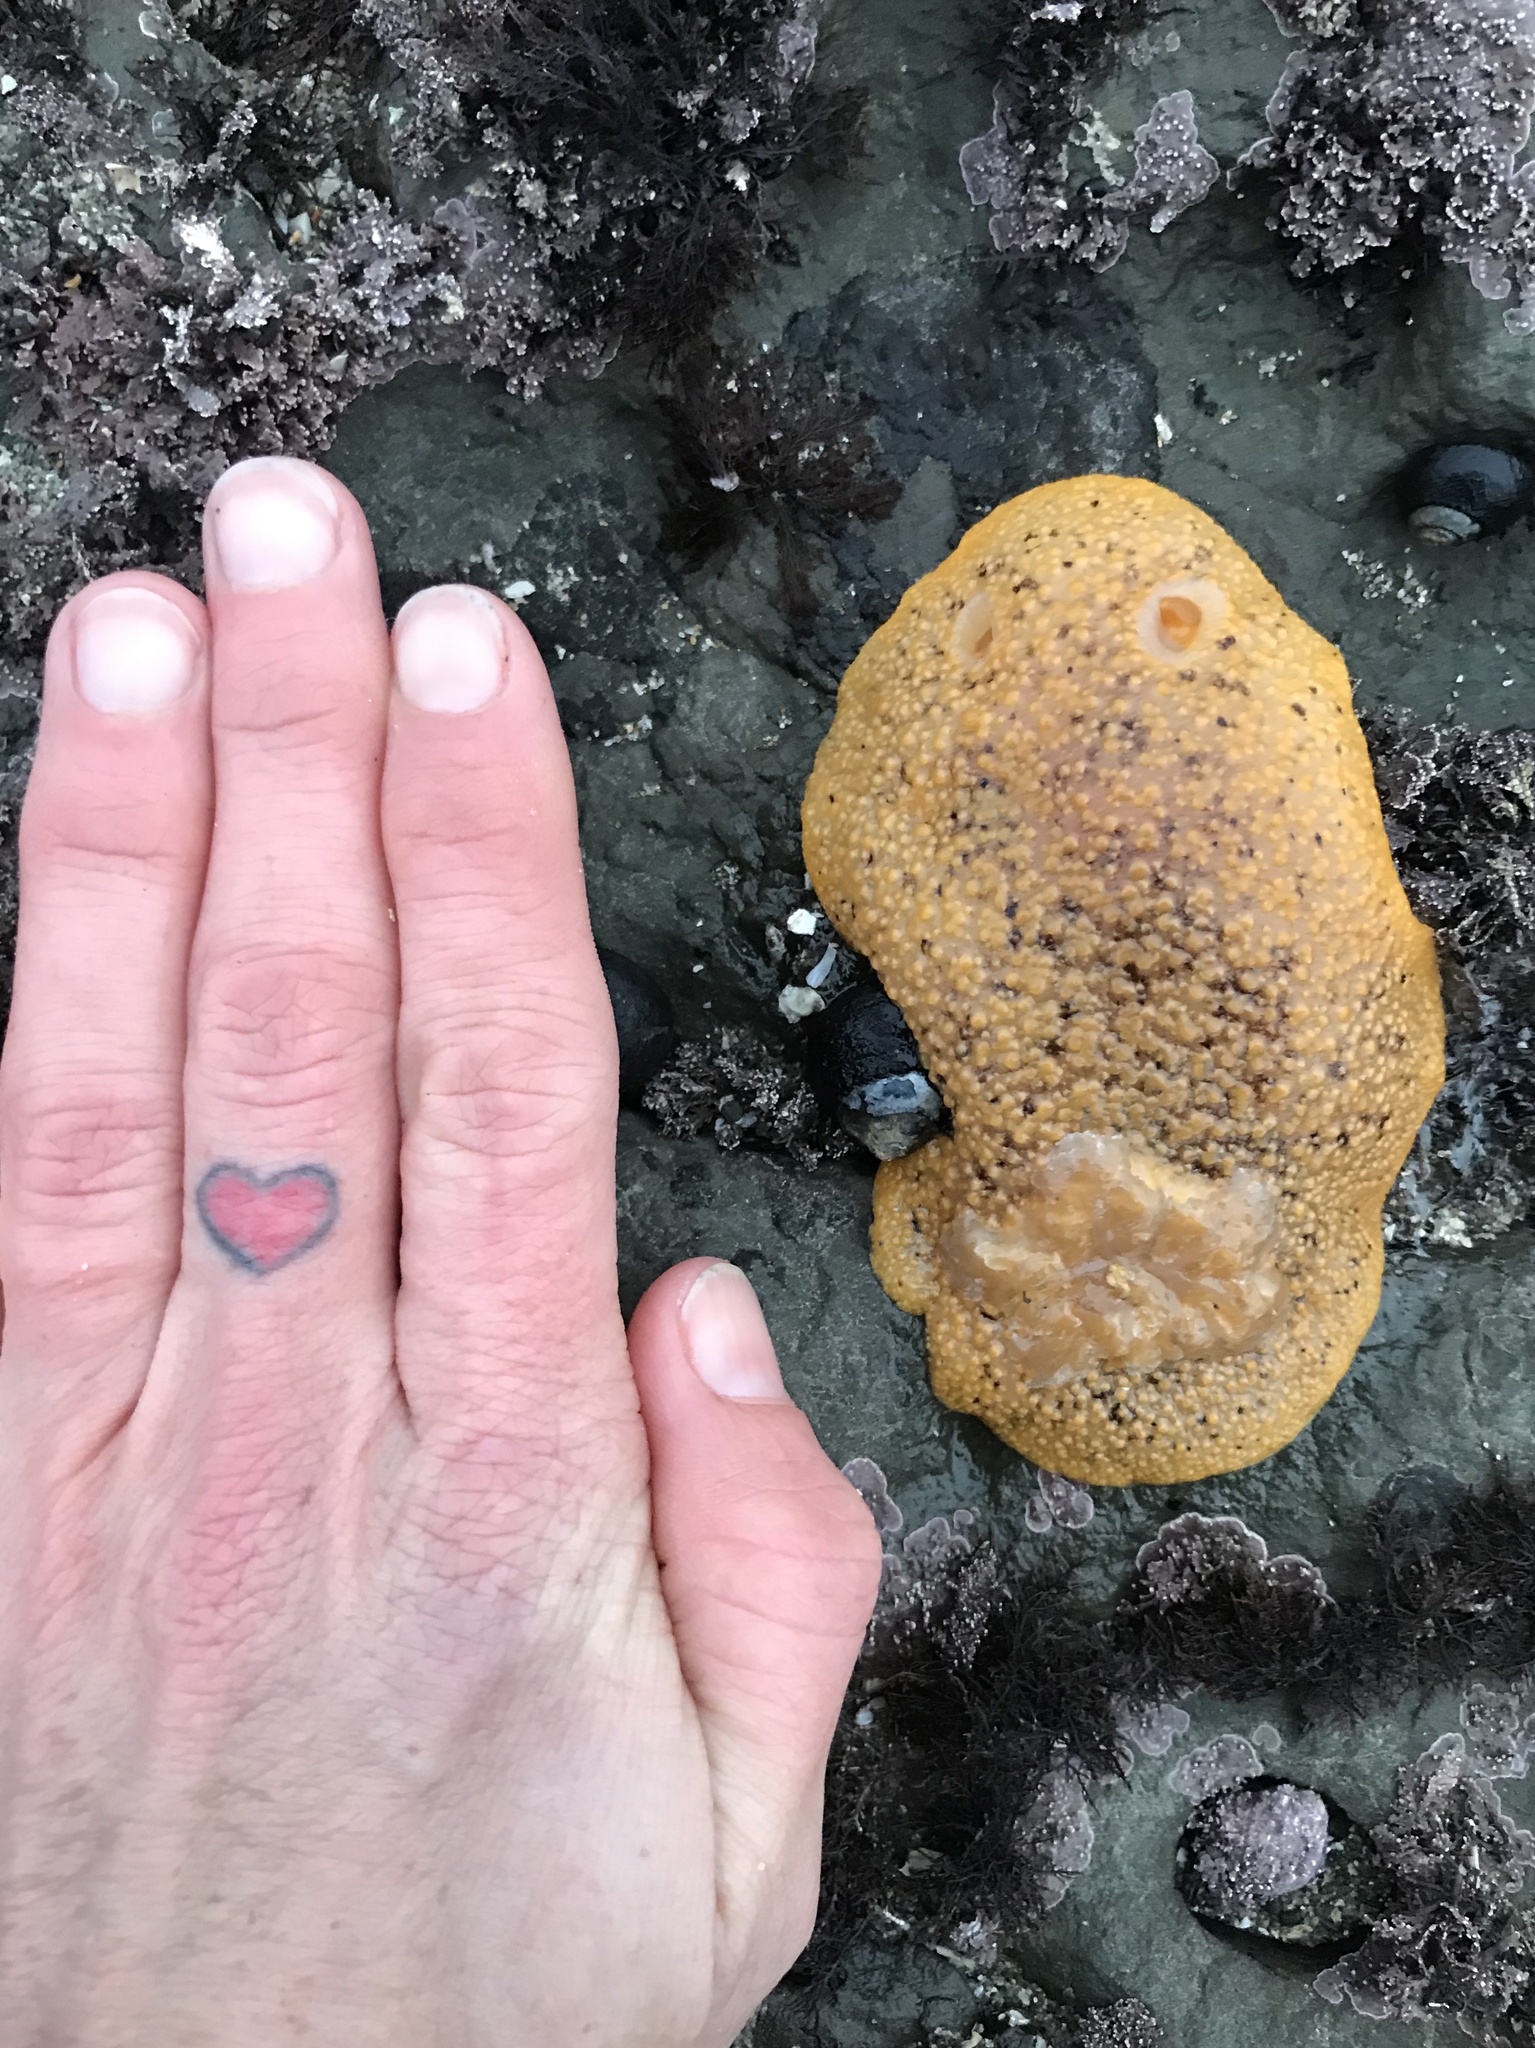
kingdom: Animalia
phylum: Mollusca
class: Gastropoda
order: Nudibranchia
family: Discodorididae
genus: Peltodoris
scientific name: Peltodoris nobilis
